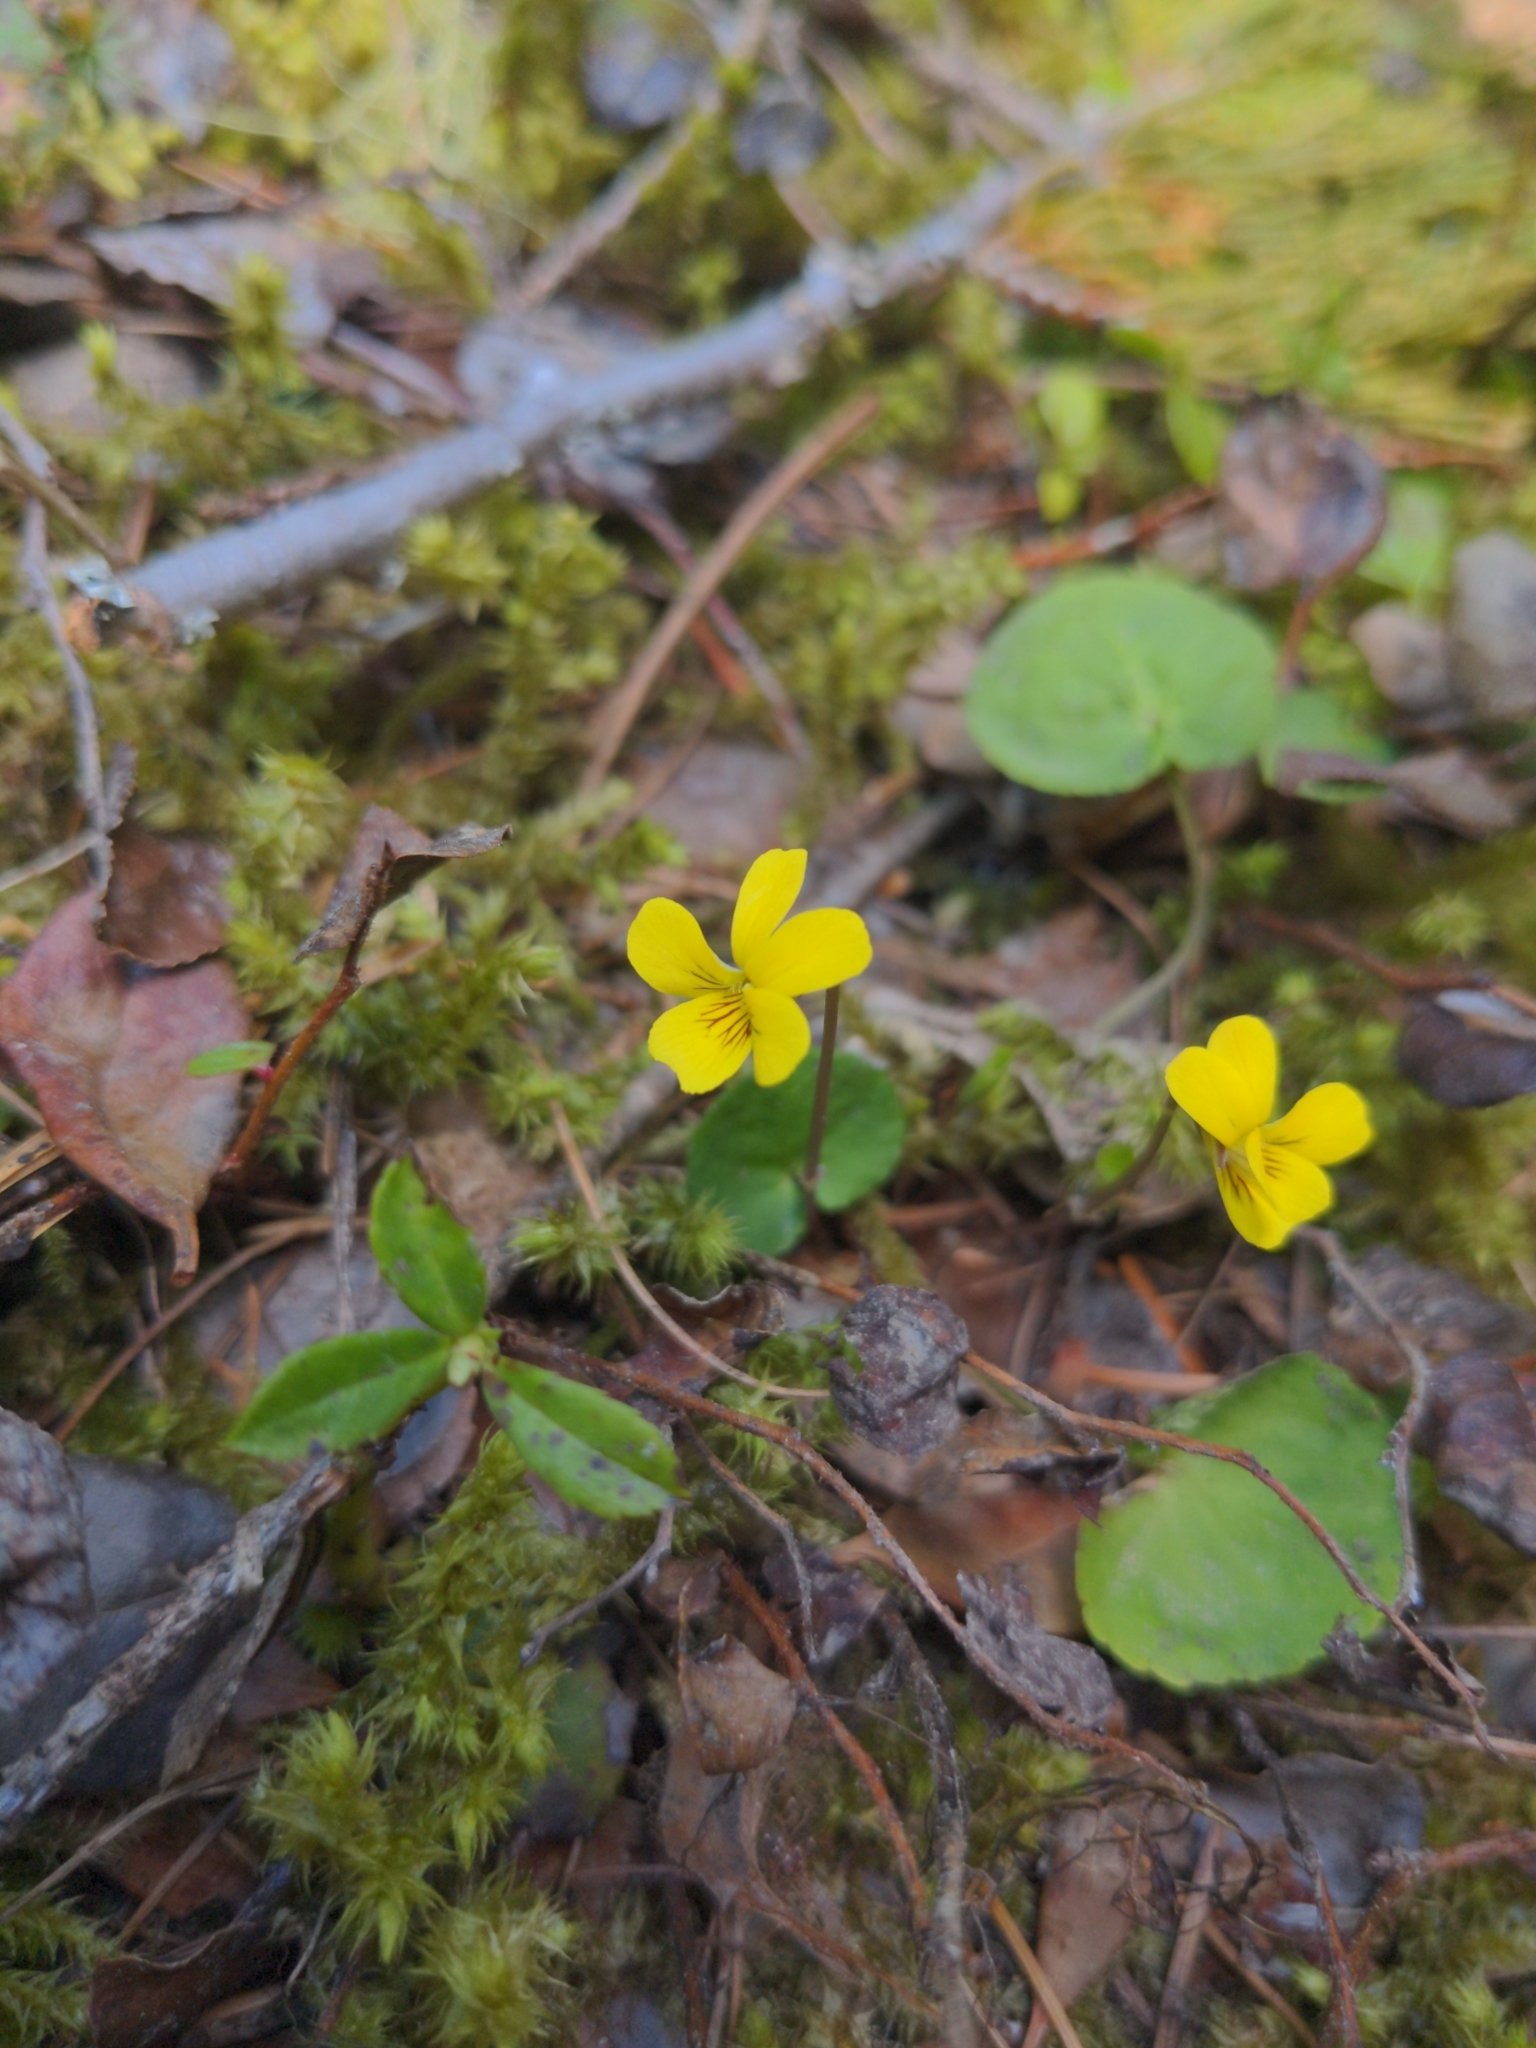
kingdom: Plantae
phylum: Tracheophyta
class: Magnoliopsida
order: Malpighiales
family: Violaceae
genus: Viola
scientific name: Viola orbiculata
